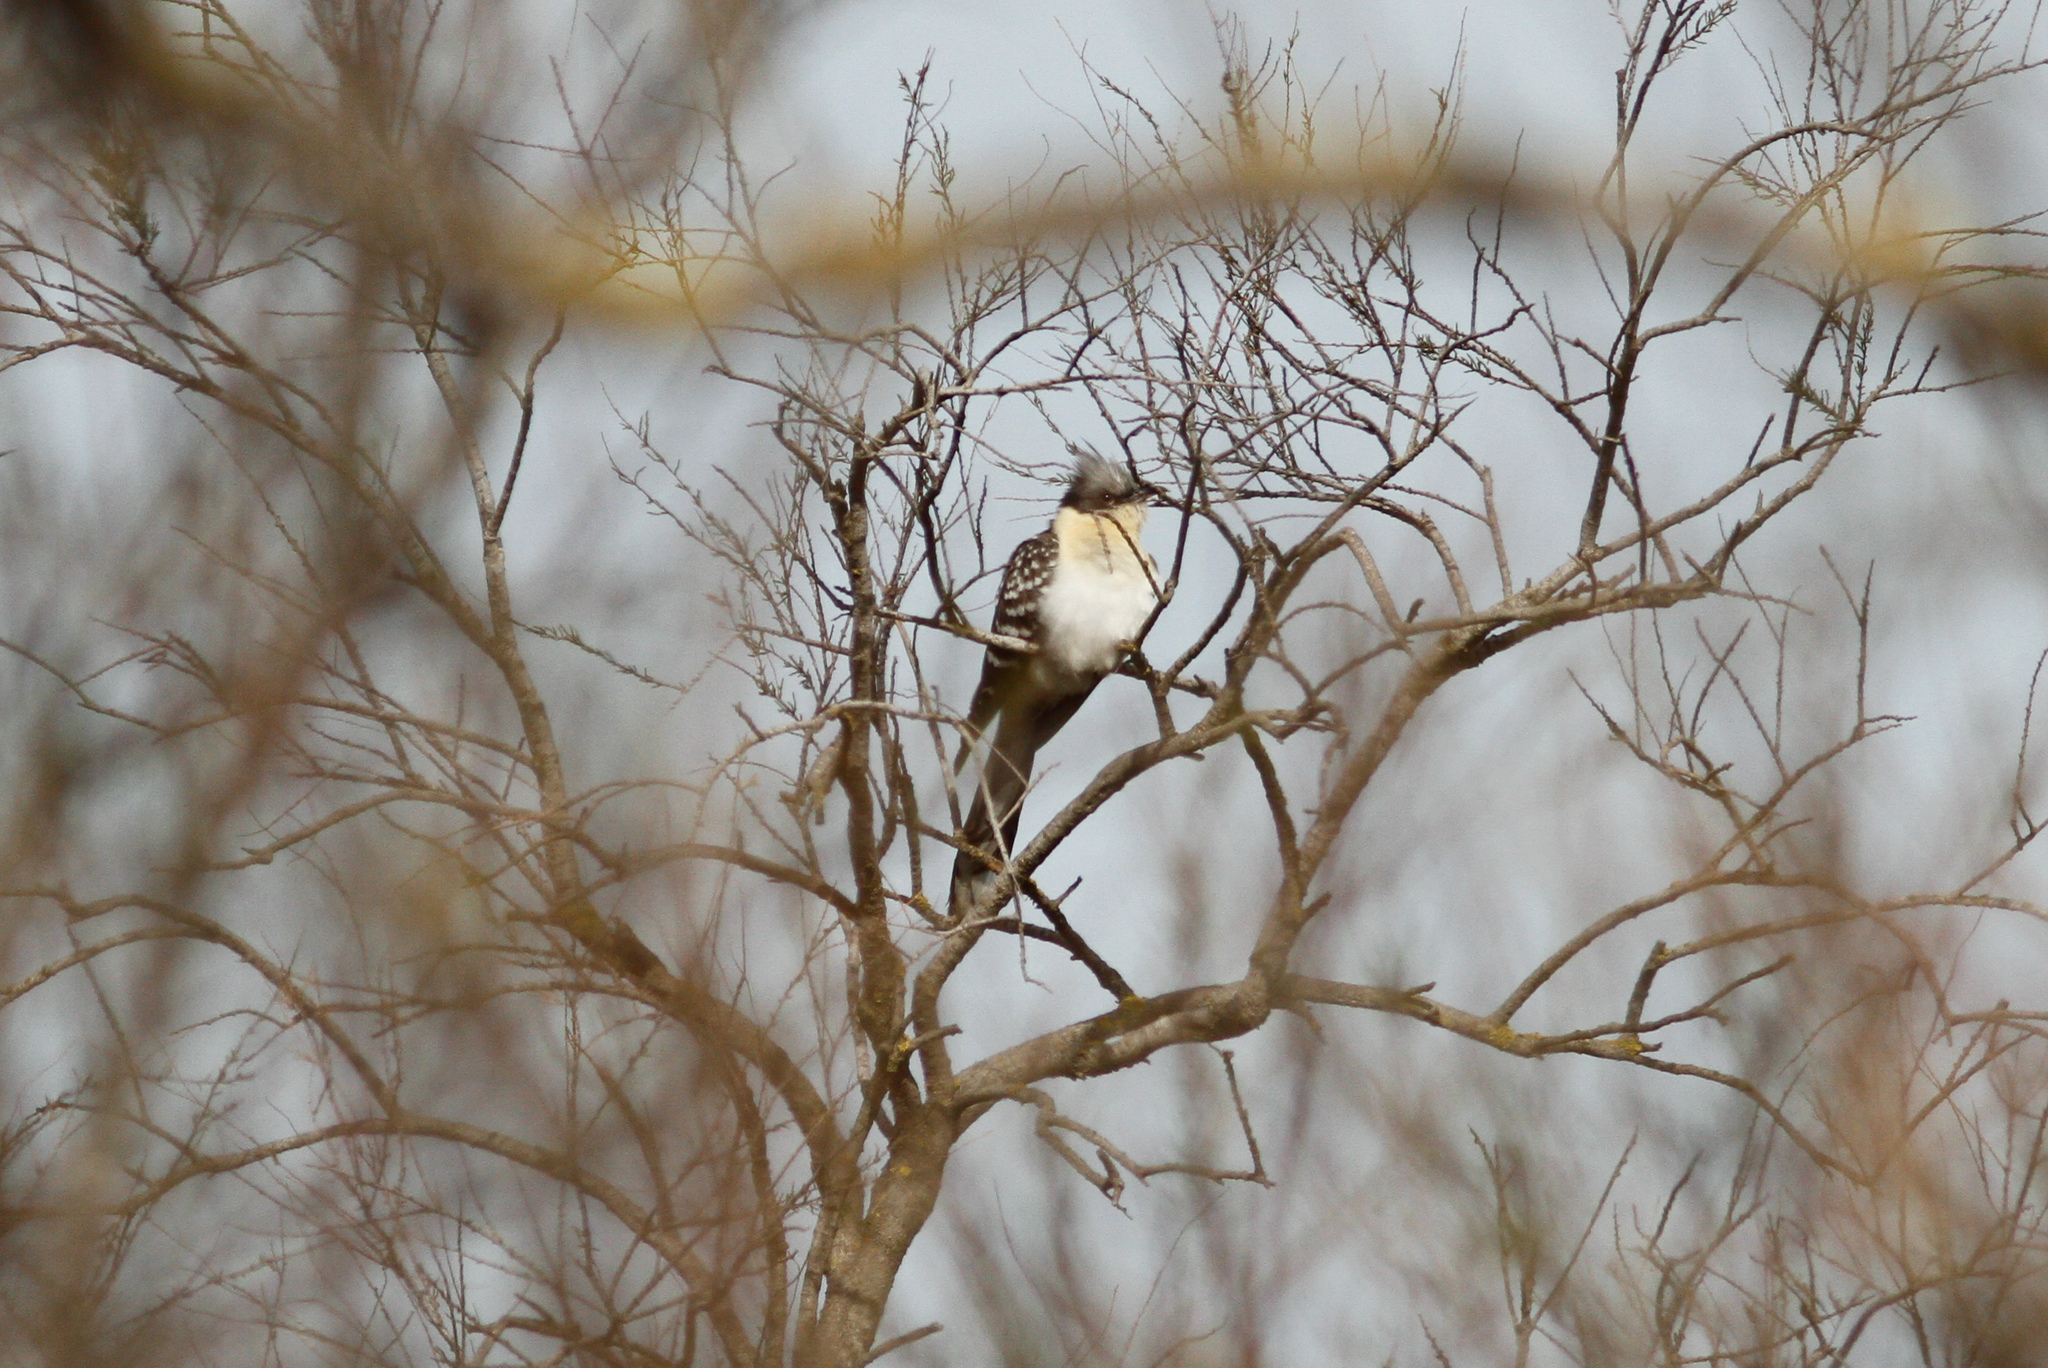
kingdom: Animalia
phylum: Chordata
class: Aves
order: Cuculiformes
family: Cuculidae
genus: Clamator
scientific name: Clamator glandarius
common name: Great spotted cuckoo
